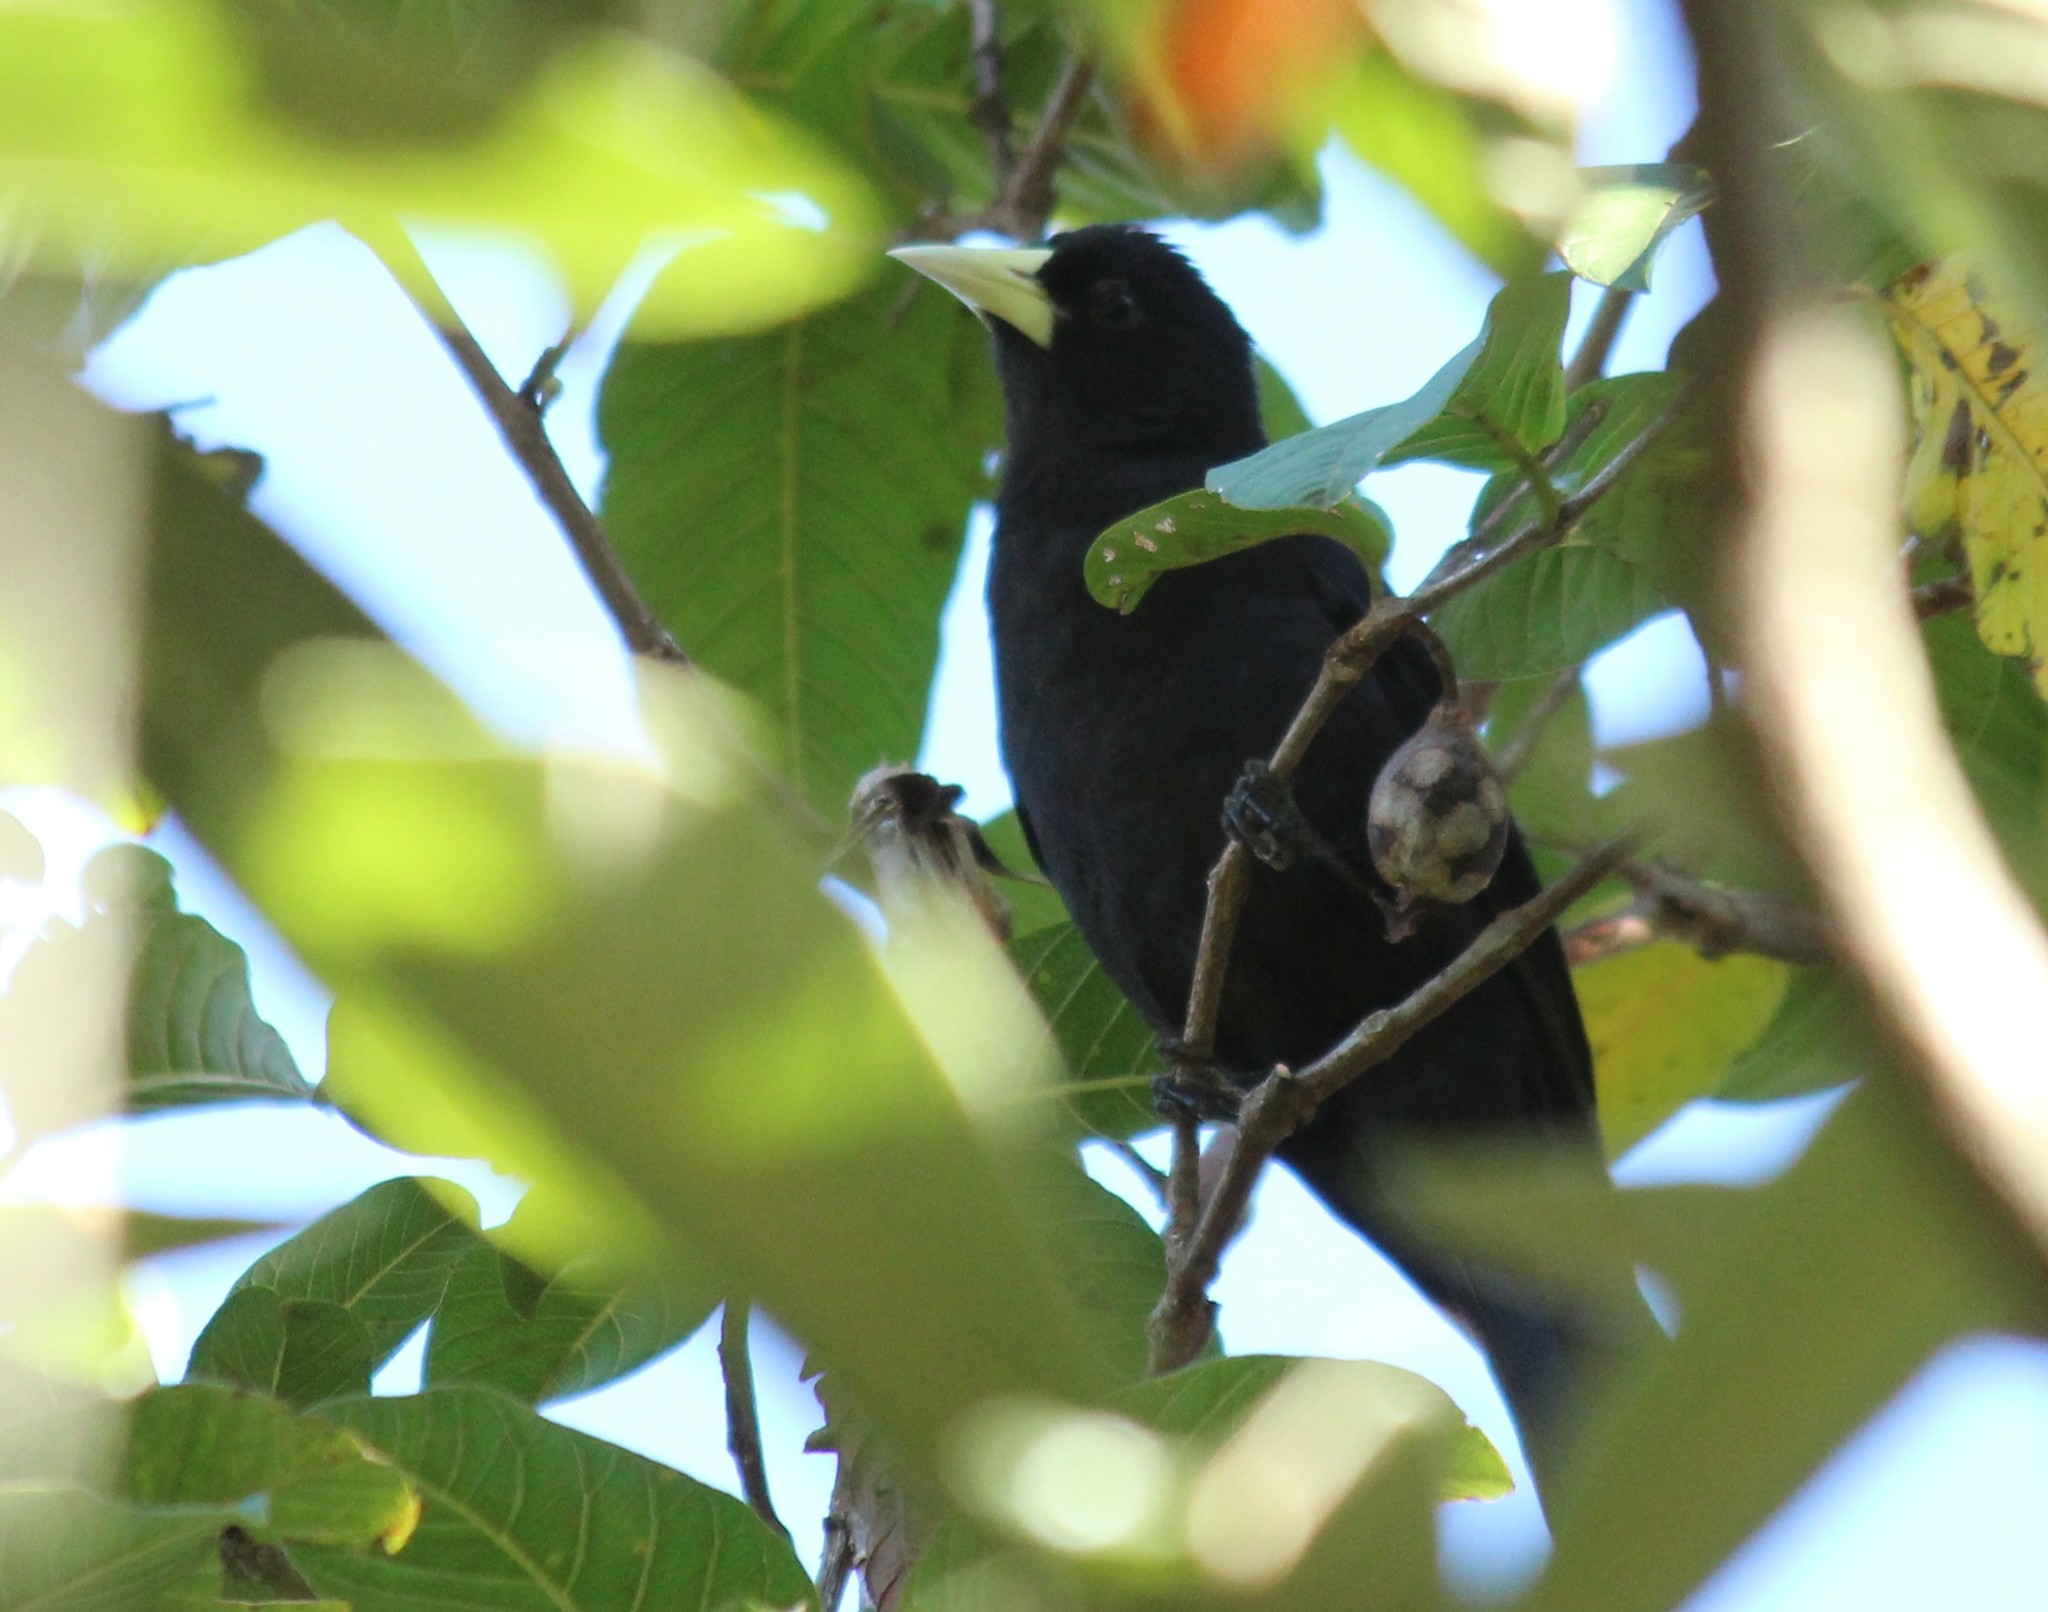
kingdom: Animalia
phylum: Chordata
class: Aves
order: Passeriformes
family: Icteridae
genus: Cacicus
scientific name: Cacicus haemorrhous
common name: Red-rumped cacique
